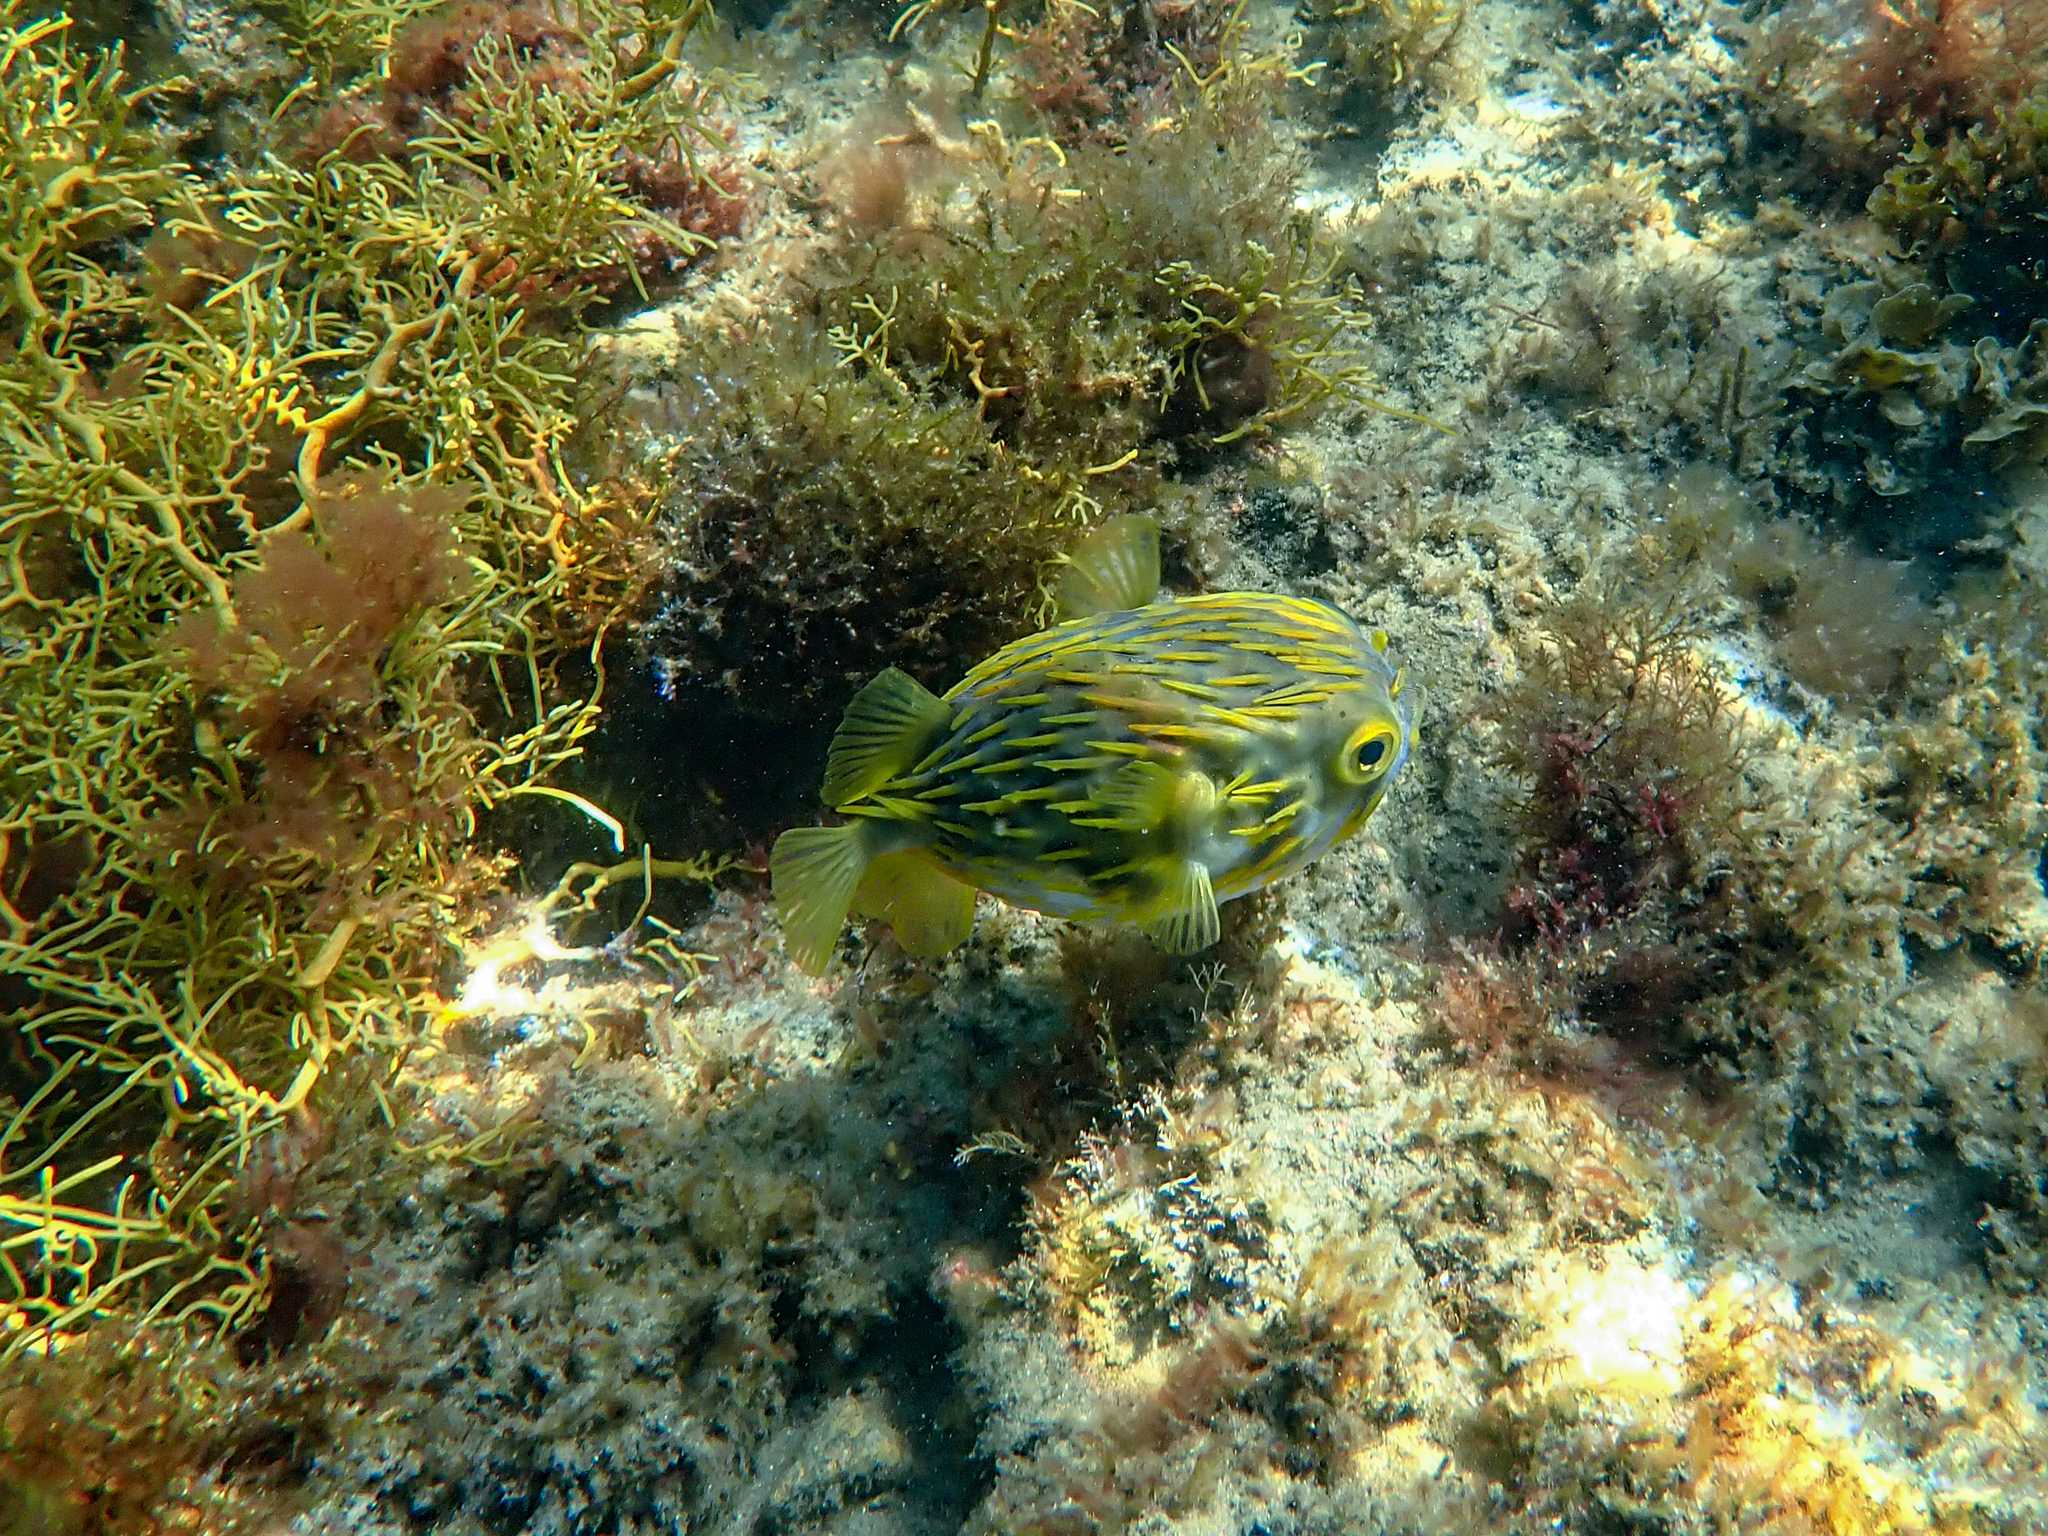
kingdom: Animalia
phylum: Chordata
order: Tetraodontiformes
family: Diodontidae
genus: Diodon
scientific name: Diodon nicthemerus
